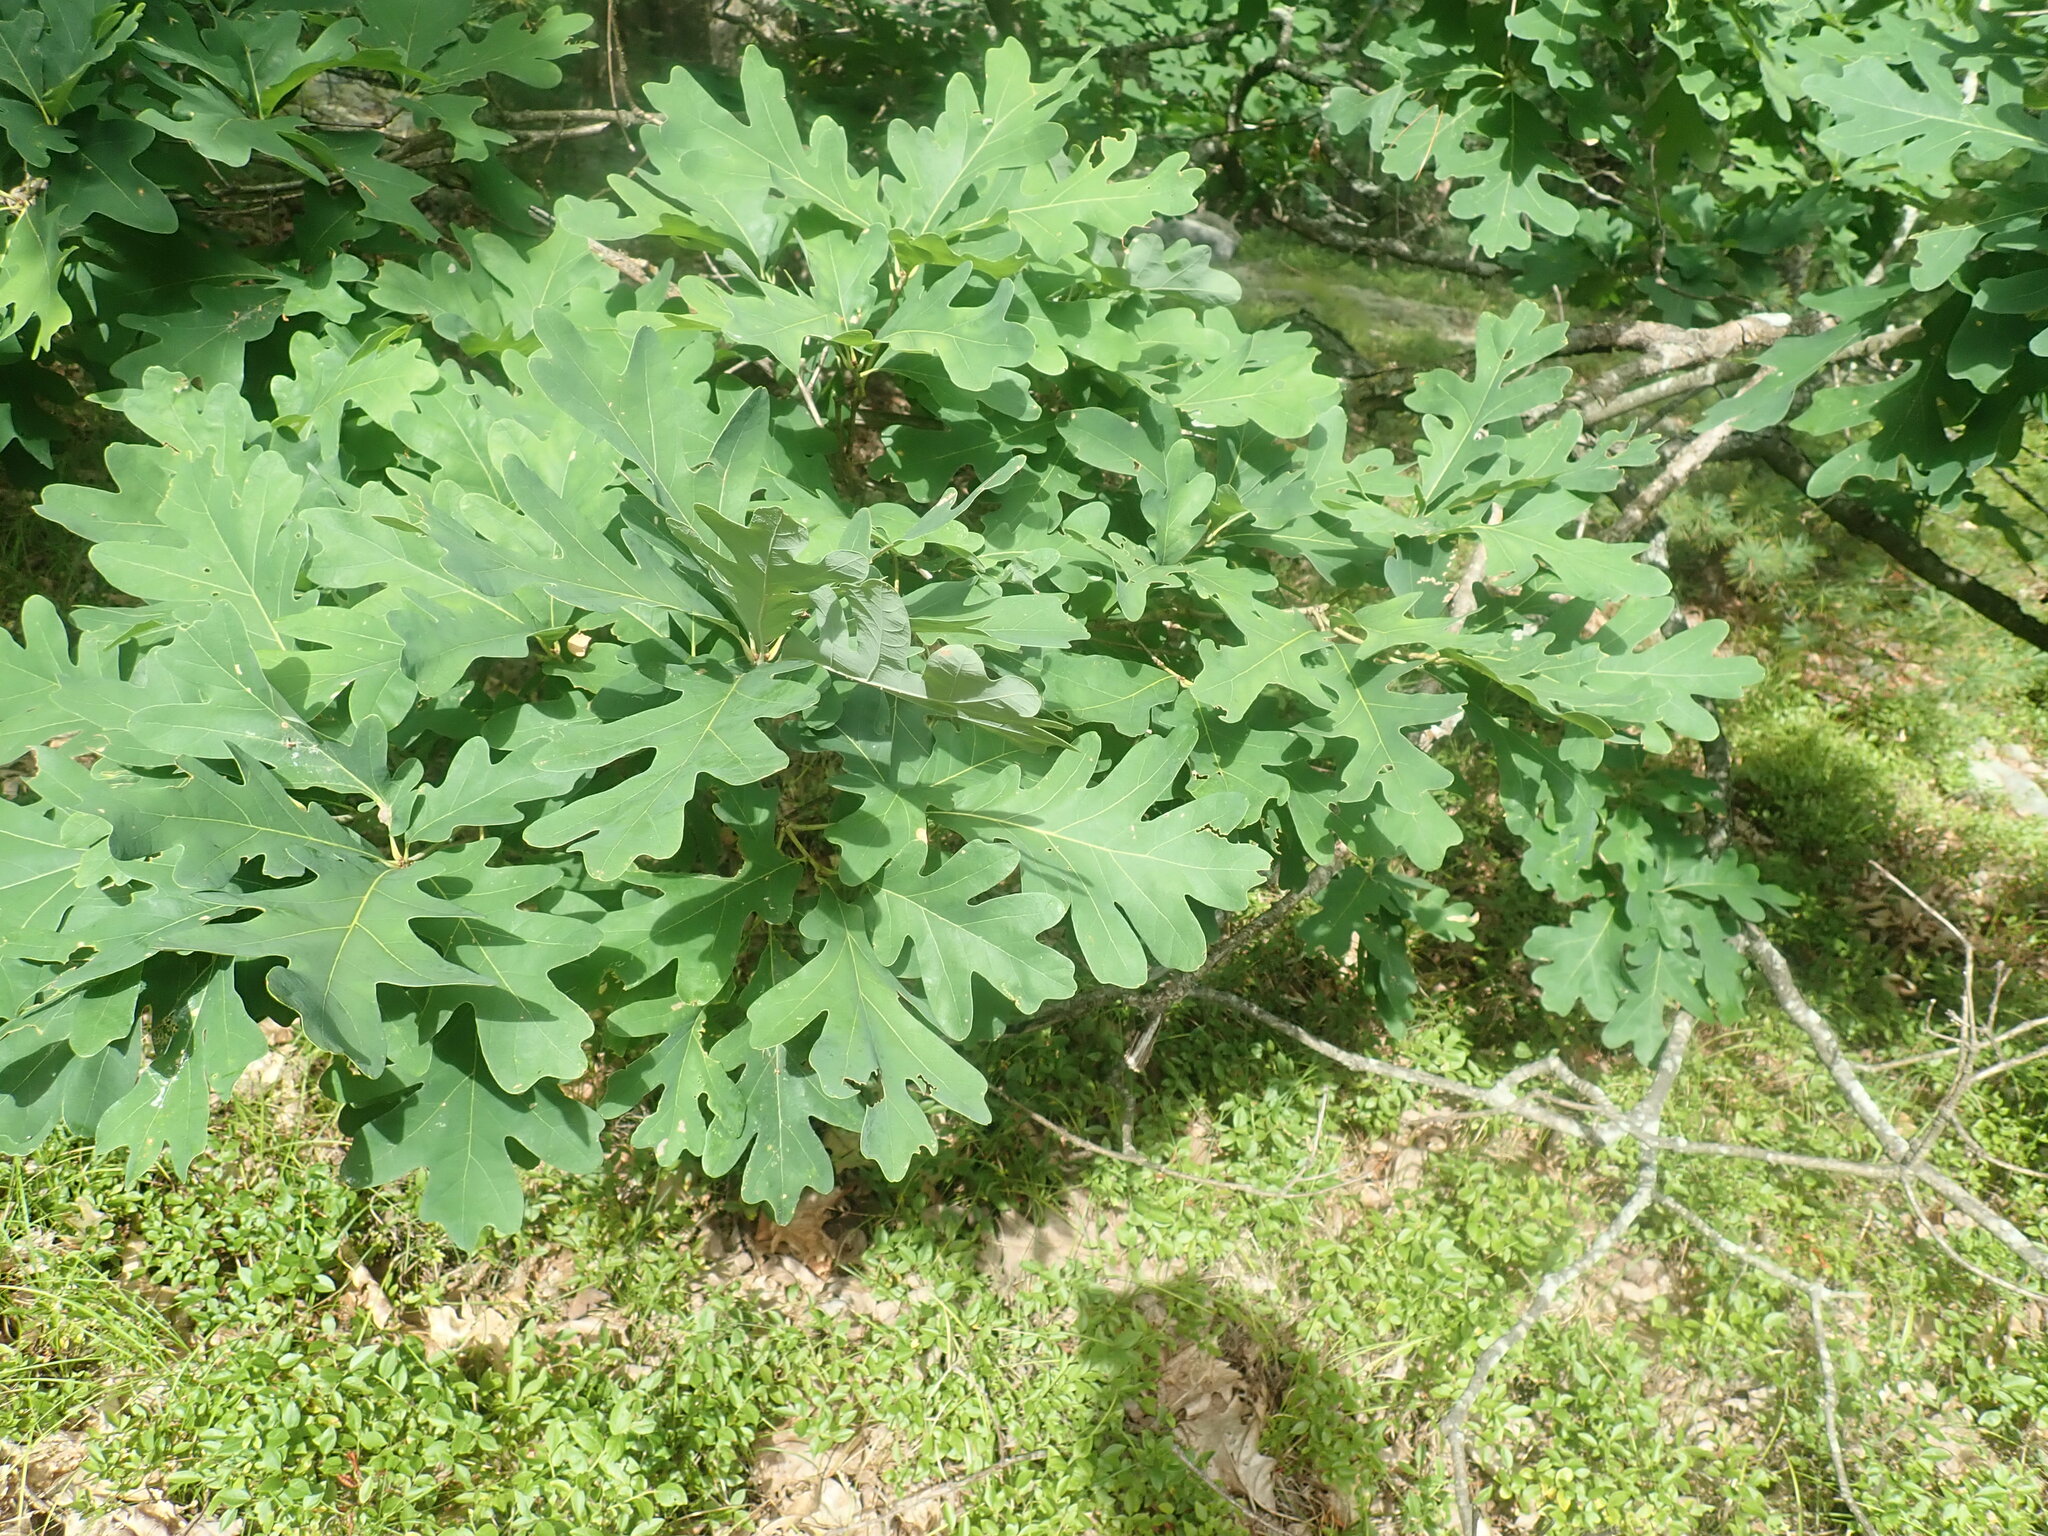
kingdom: Plantae
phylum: Tracheophyta
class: Magnoliopsida
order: Fagales
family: Fagaceae
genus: Quercus
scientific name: Quercus alba
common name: White oak
